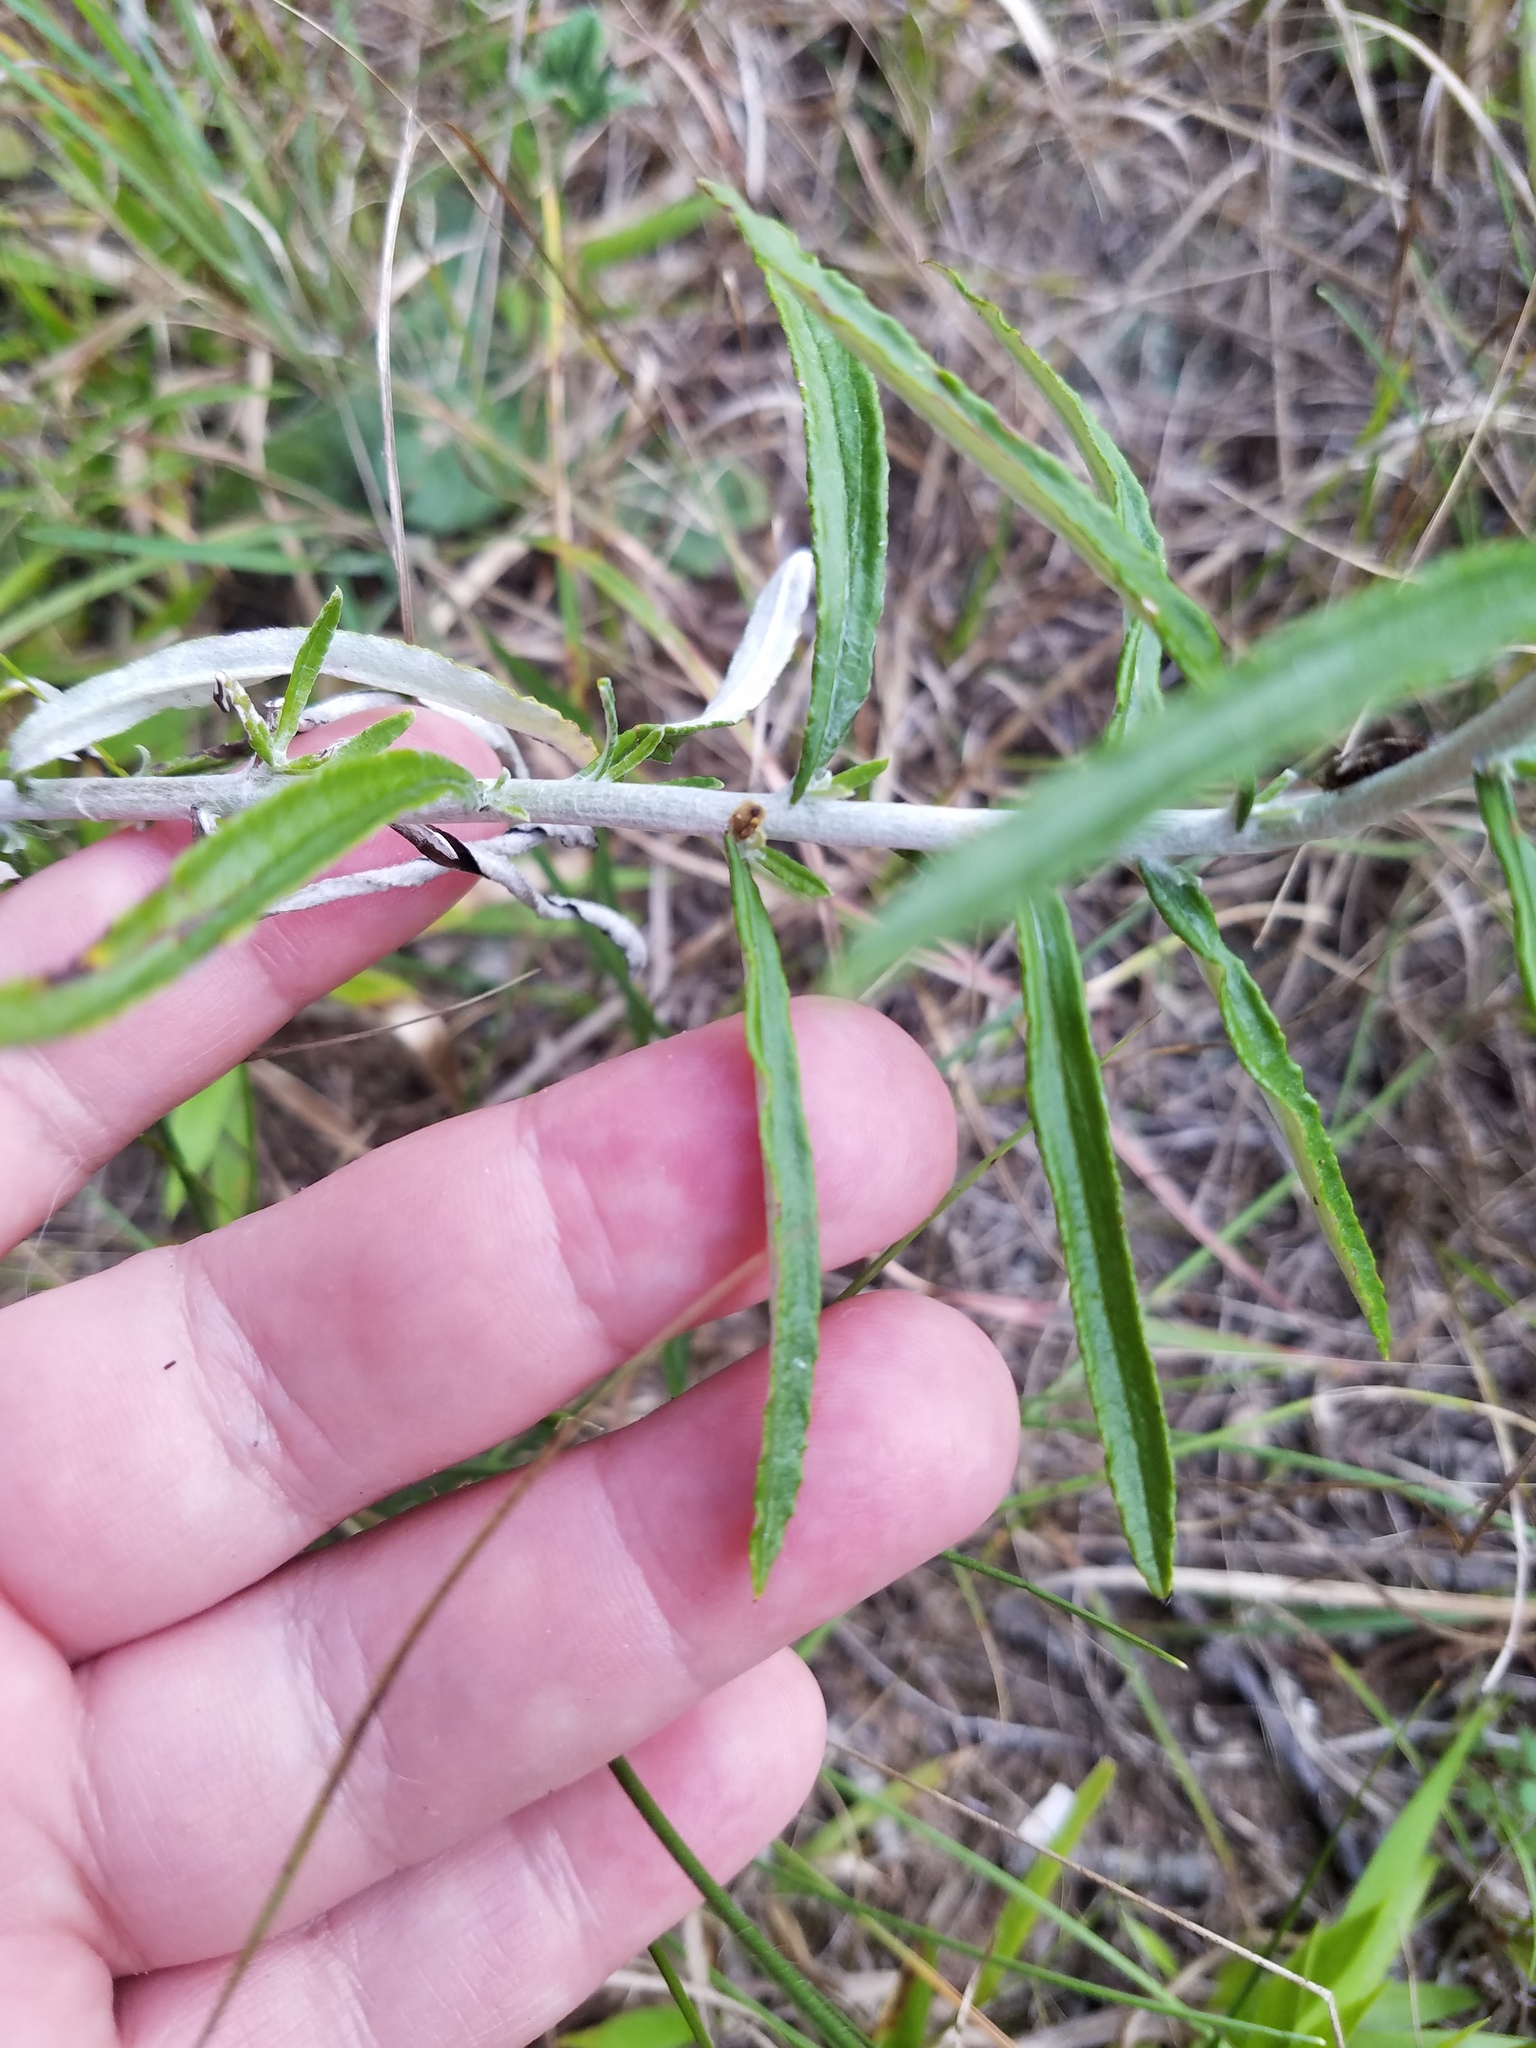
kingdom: Plantae
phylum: Tracheophyta
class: Magnoliopsida
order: Asterales
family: Asteraceae
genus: Pseudognaphalium
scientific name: Pseudognaphalium obtusifolium
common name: Eastern rabbit-tobacco
